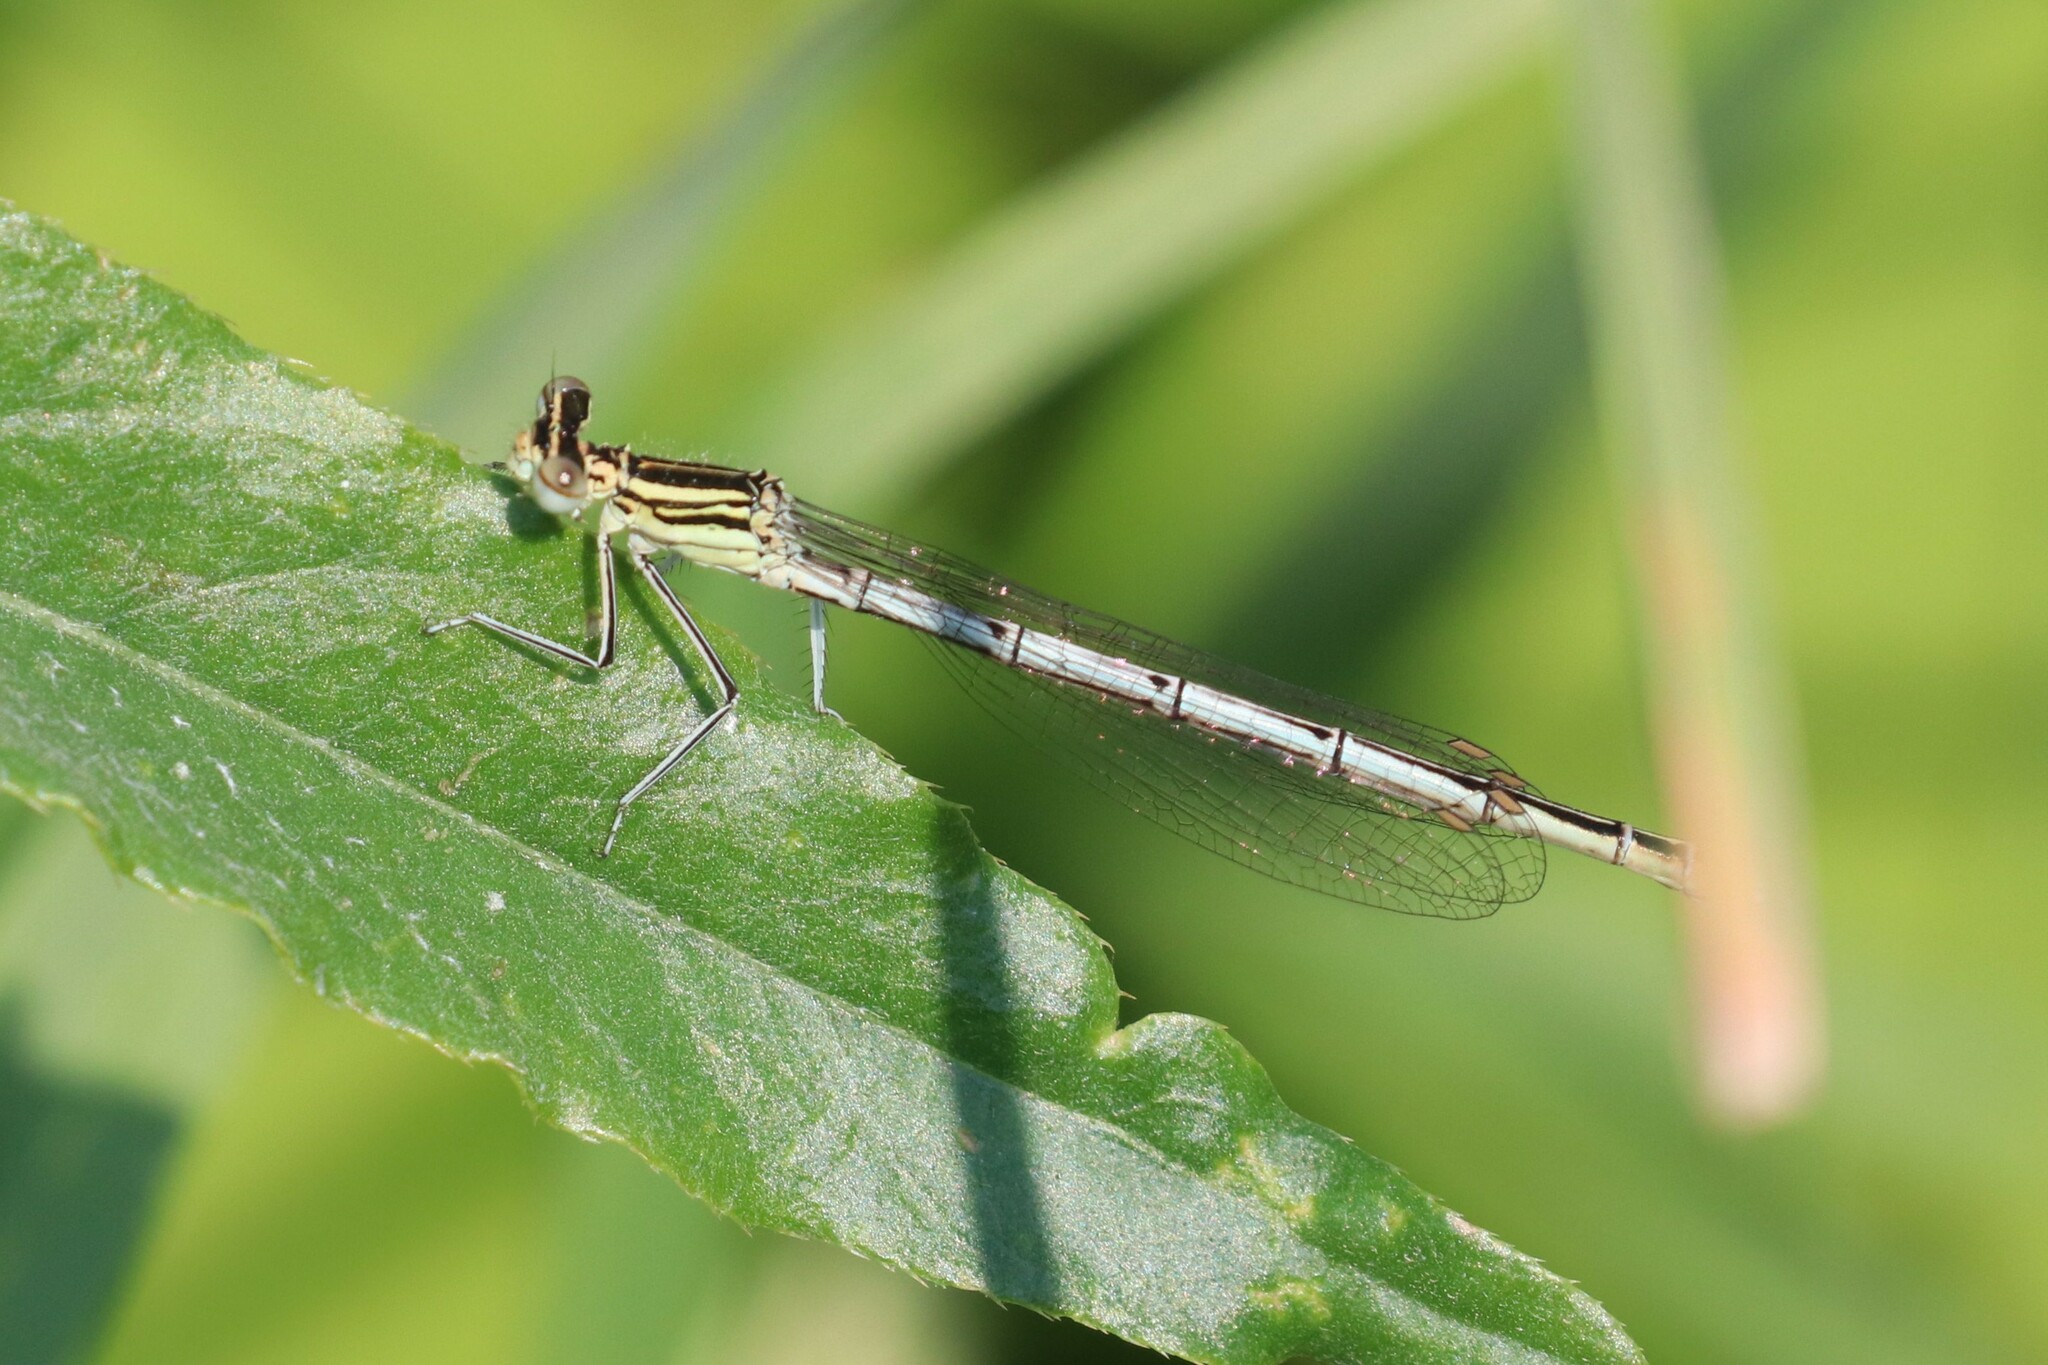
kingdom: Animalia
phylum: Arthropoda
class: Insecta
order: Odonata
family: Platycnemididae
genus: Platycnemis
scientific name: Platycnemis pennipes
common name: White-legged damselfly
